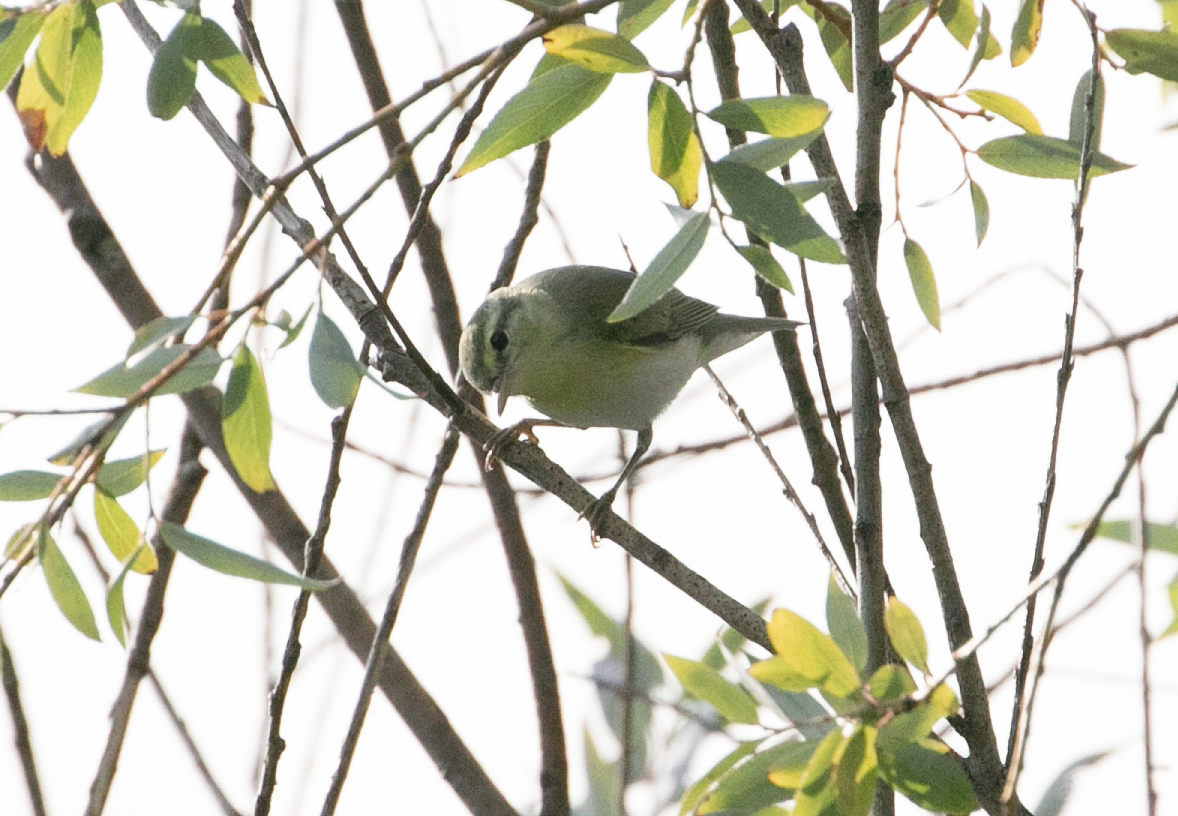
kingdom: Animalia
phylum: Chordata
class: Aves
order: Passeriformes
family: Phylloscopidae
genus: Phylloscopus
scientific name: Phylloscopus sibillatrix
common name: Wood warbler
